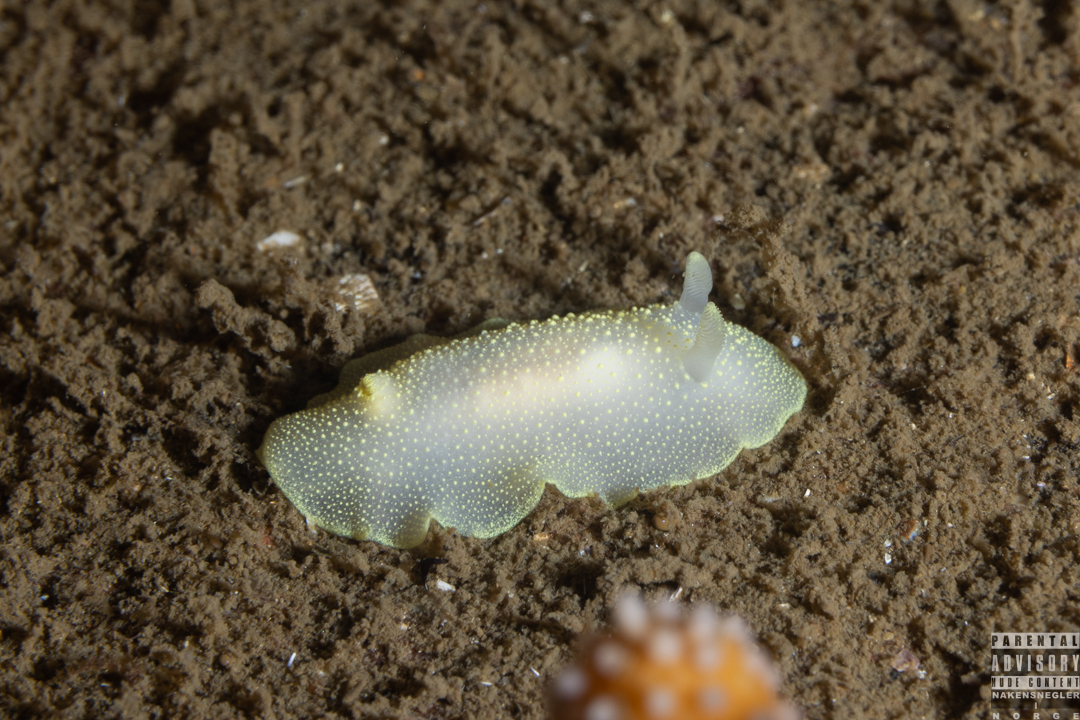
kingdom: Animalia
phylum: Mollusca
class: Gastropoda
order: Nudibranchia
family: Cadlinidae
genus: Cadlina
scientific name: Cadlina laevis
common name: White atlantic cadlina
